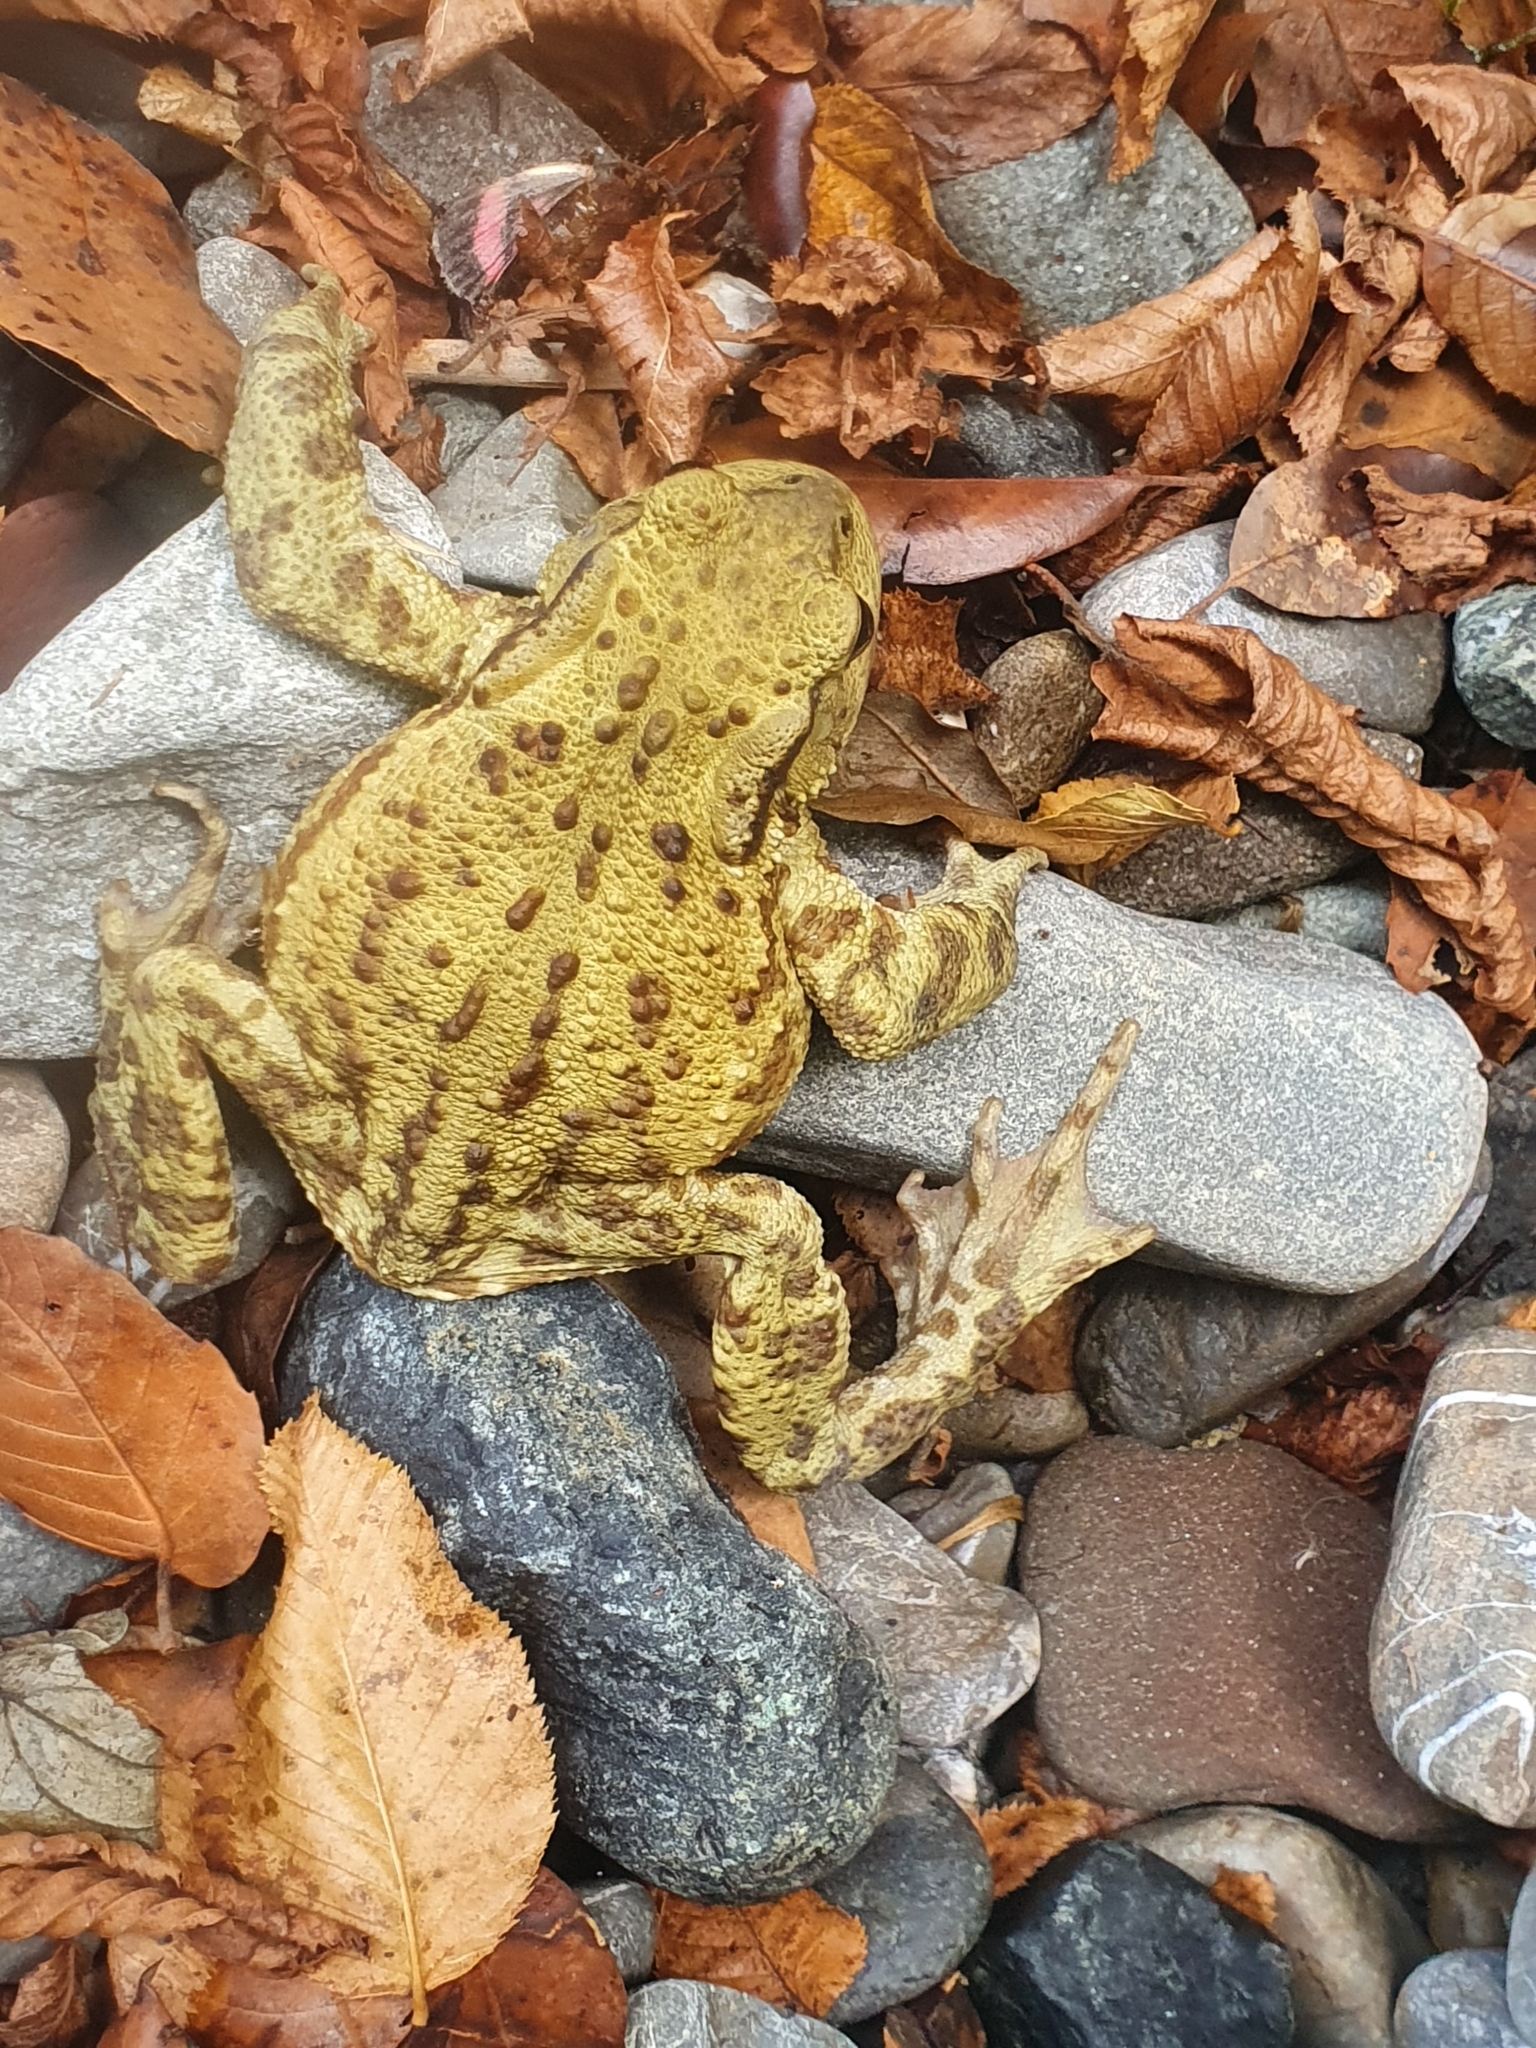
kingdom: Animalia
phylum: Chordata
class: Amphibia
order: Anura
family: Bufonidae
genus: Bufo
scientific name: Bufo bufo
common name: Common toad
